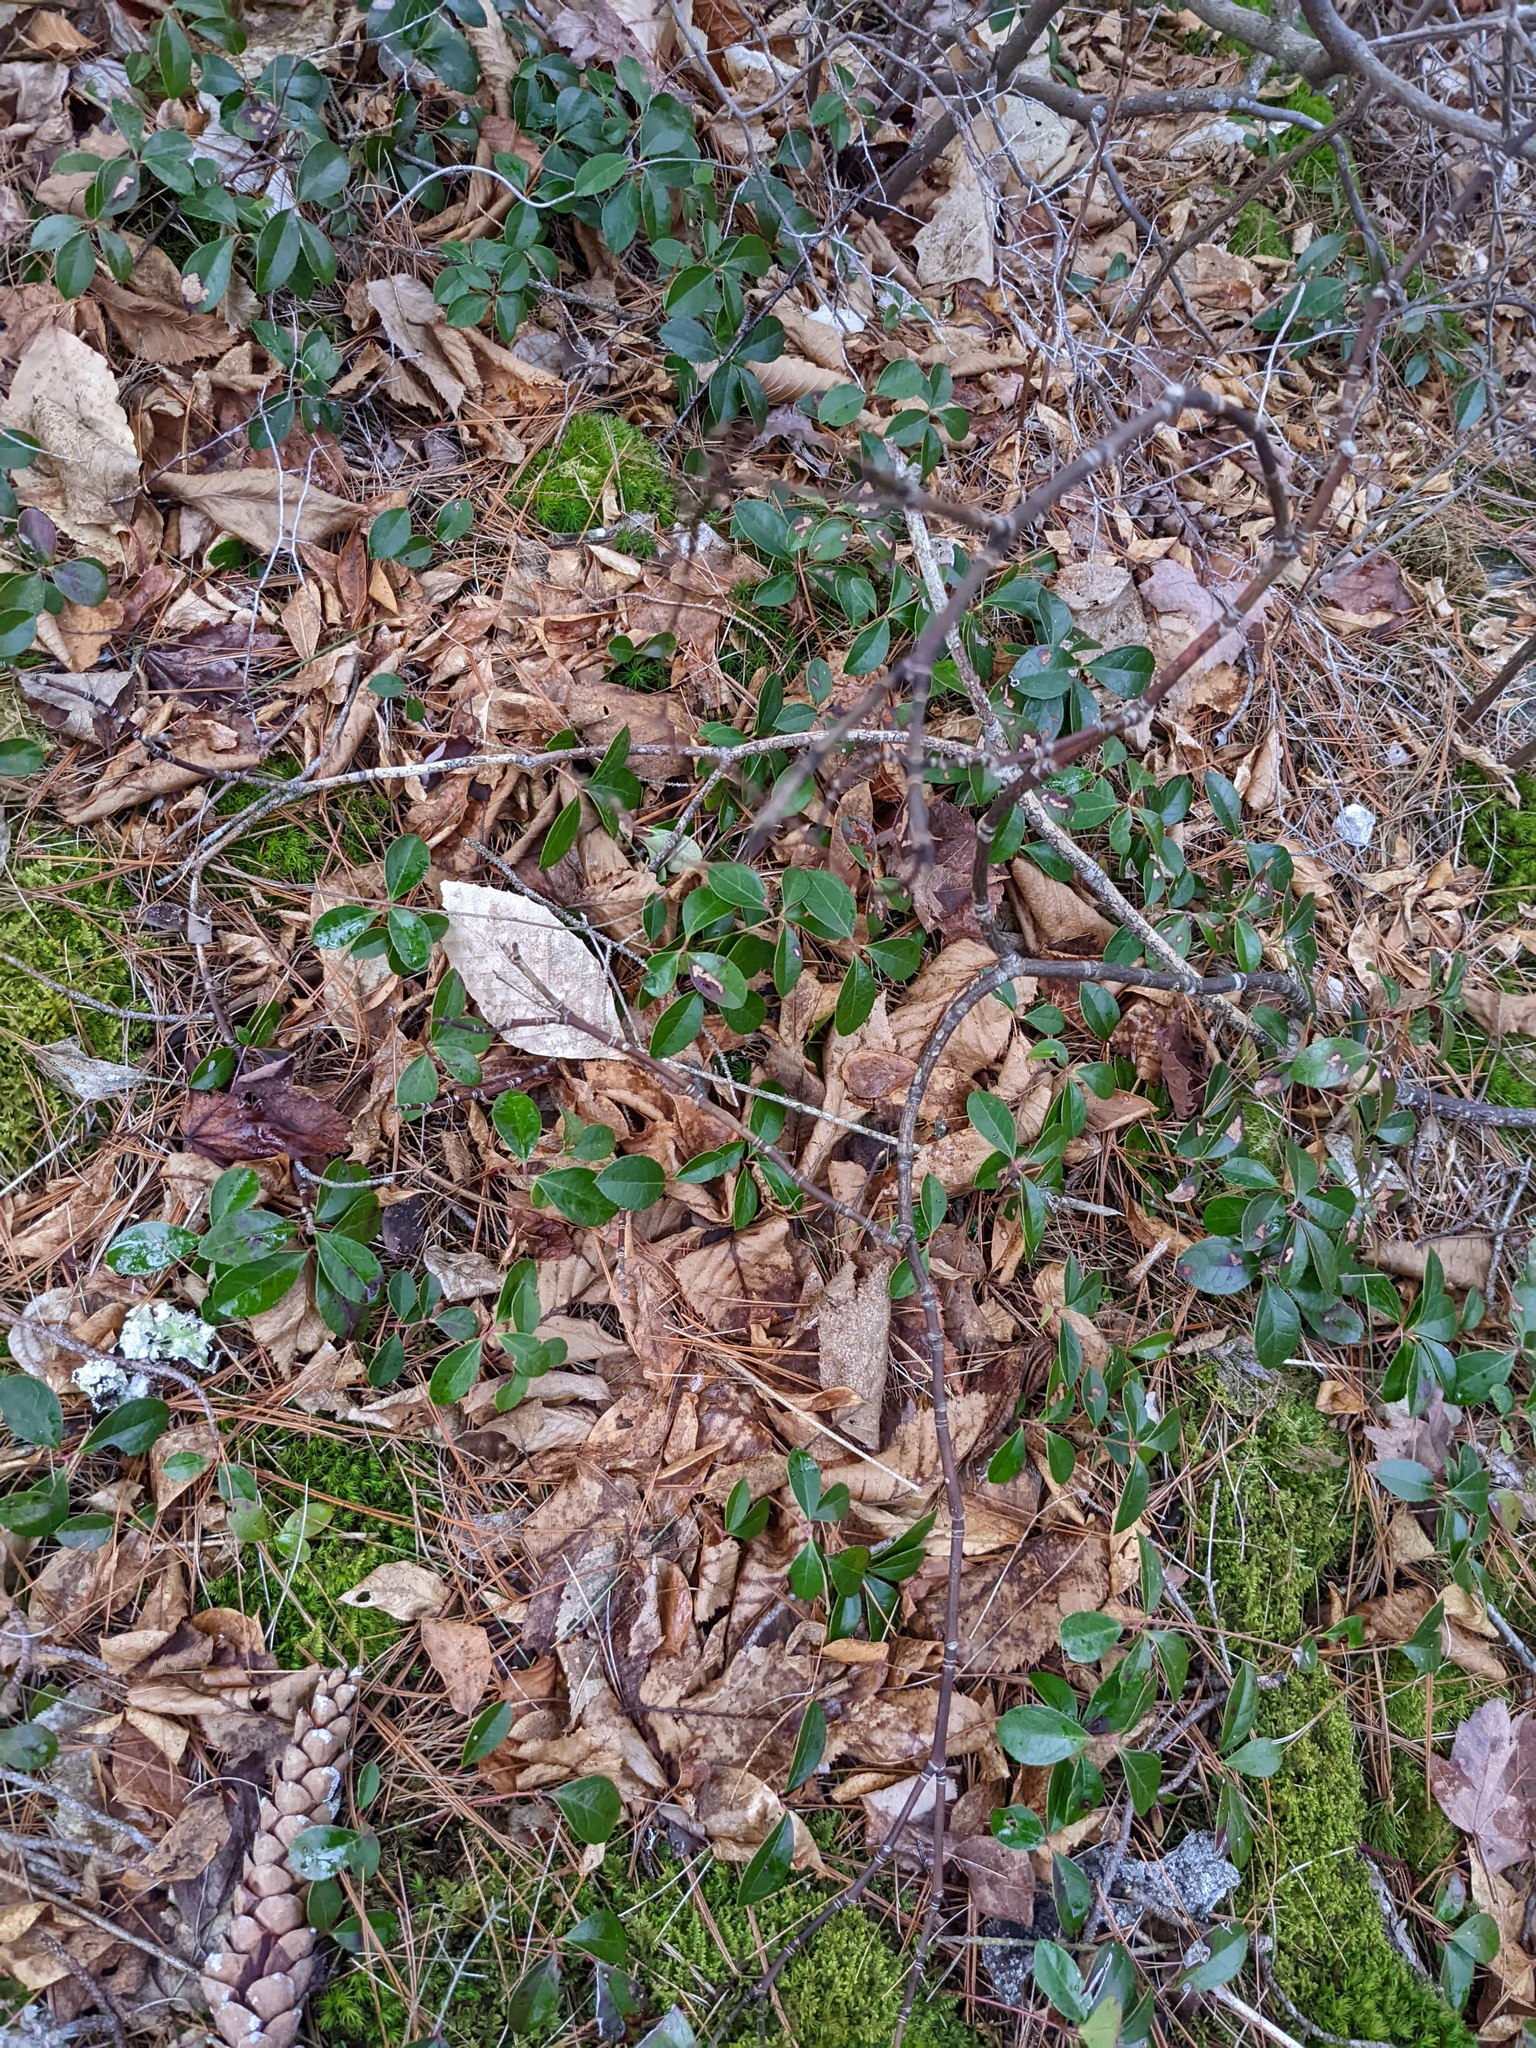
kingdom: Plantae
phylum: Tracheophyta
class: Magnoliopsida
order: Ericales
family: Ericaceae
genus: Gaultheria
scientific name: Gaultheria procumbens
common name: Checkerberry
